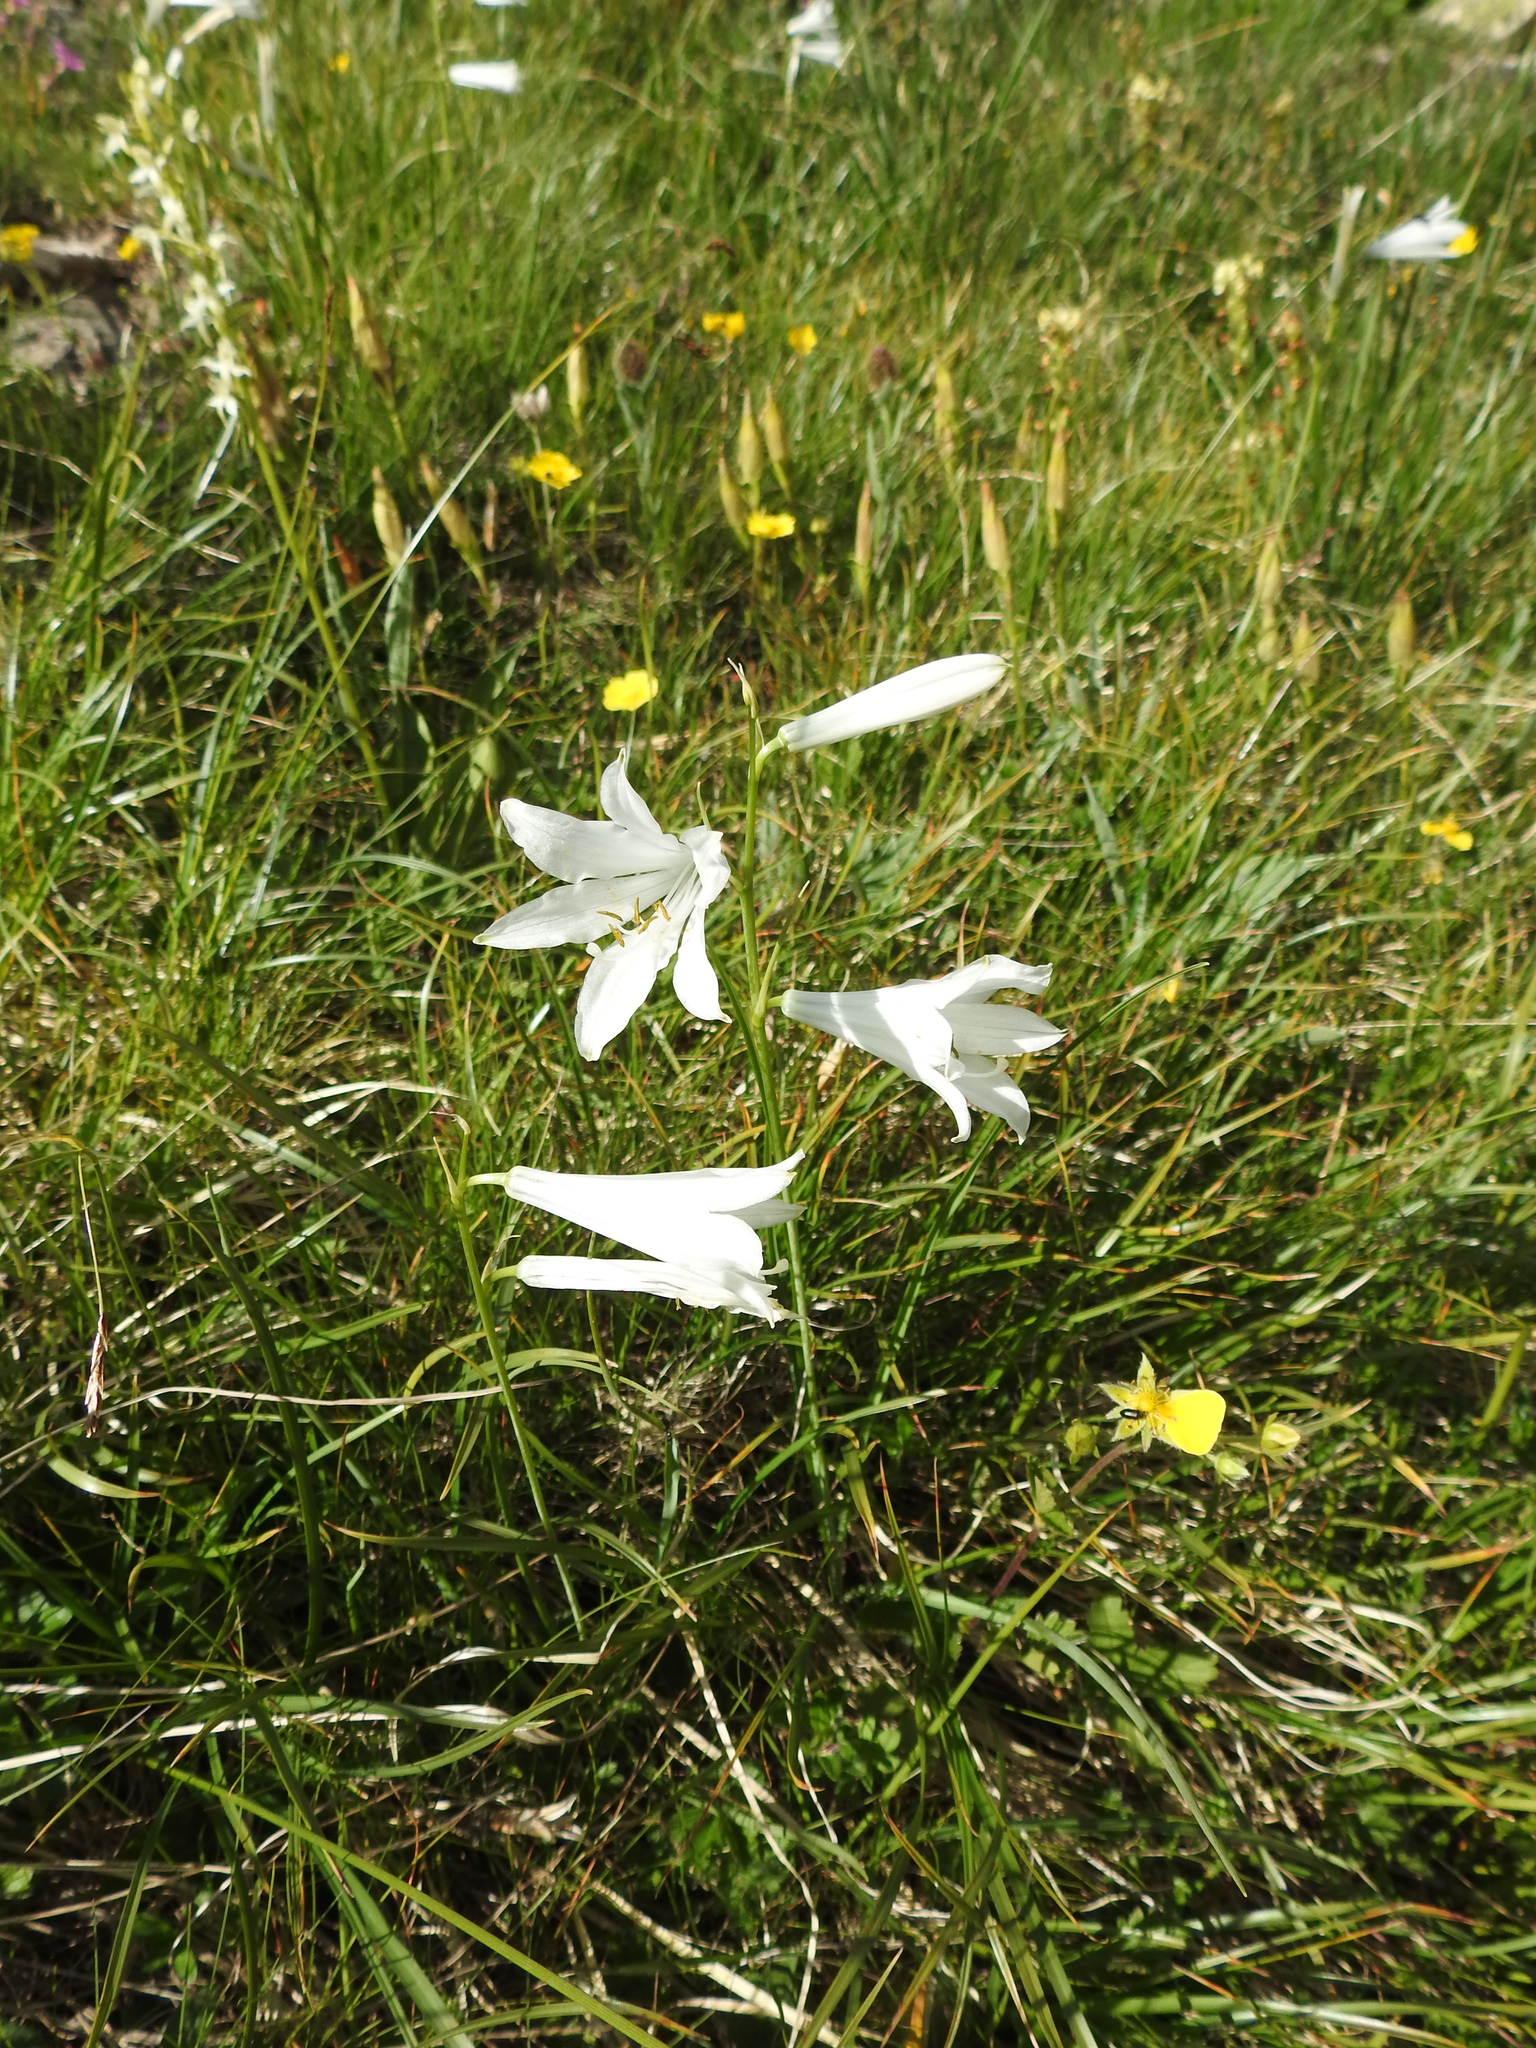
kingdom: Plantae
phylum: Tracheophyta
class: Liliopsida
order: Asparagales
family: Asparagaceae
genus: Paradisea
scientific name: Paradisea liliastrum
